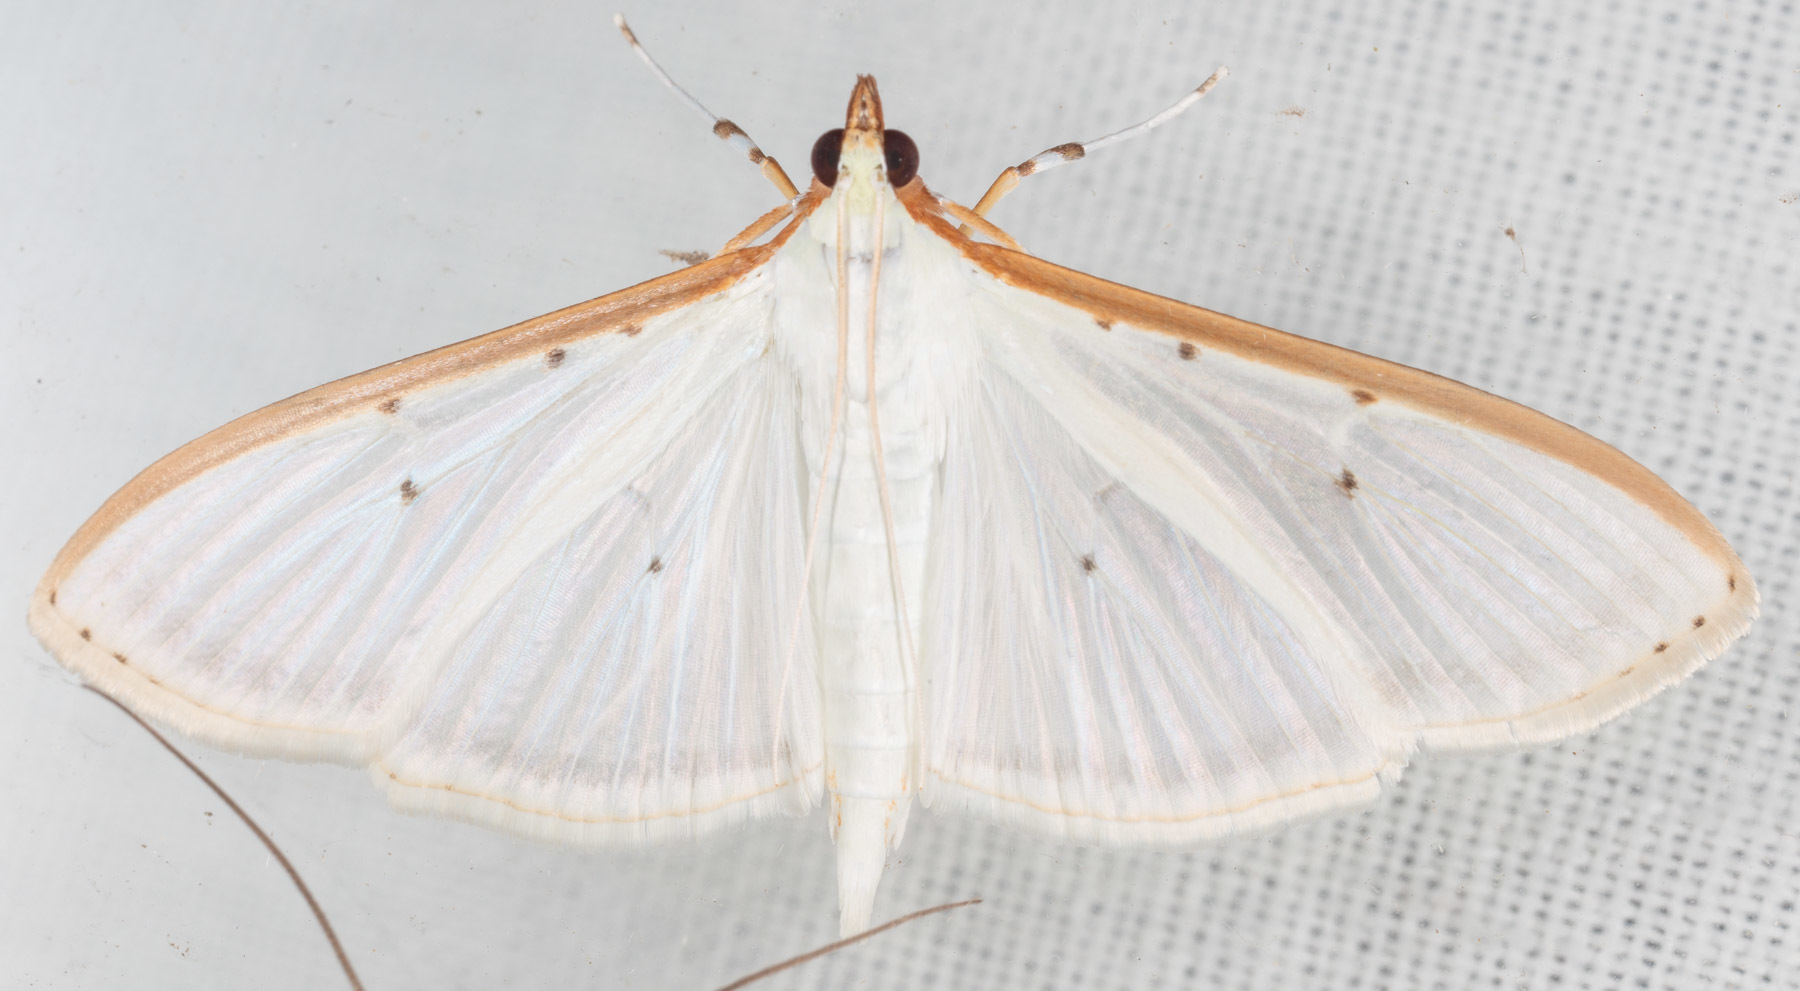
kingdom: Animalia
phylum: Arthropoda
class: Insecta
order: Lepidoptera
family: Crambidae
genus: Palpita
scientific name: Palpita quadristigmalis
